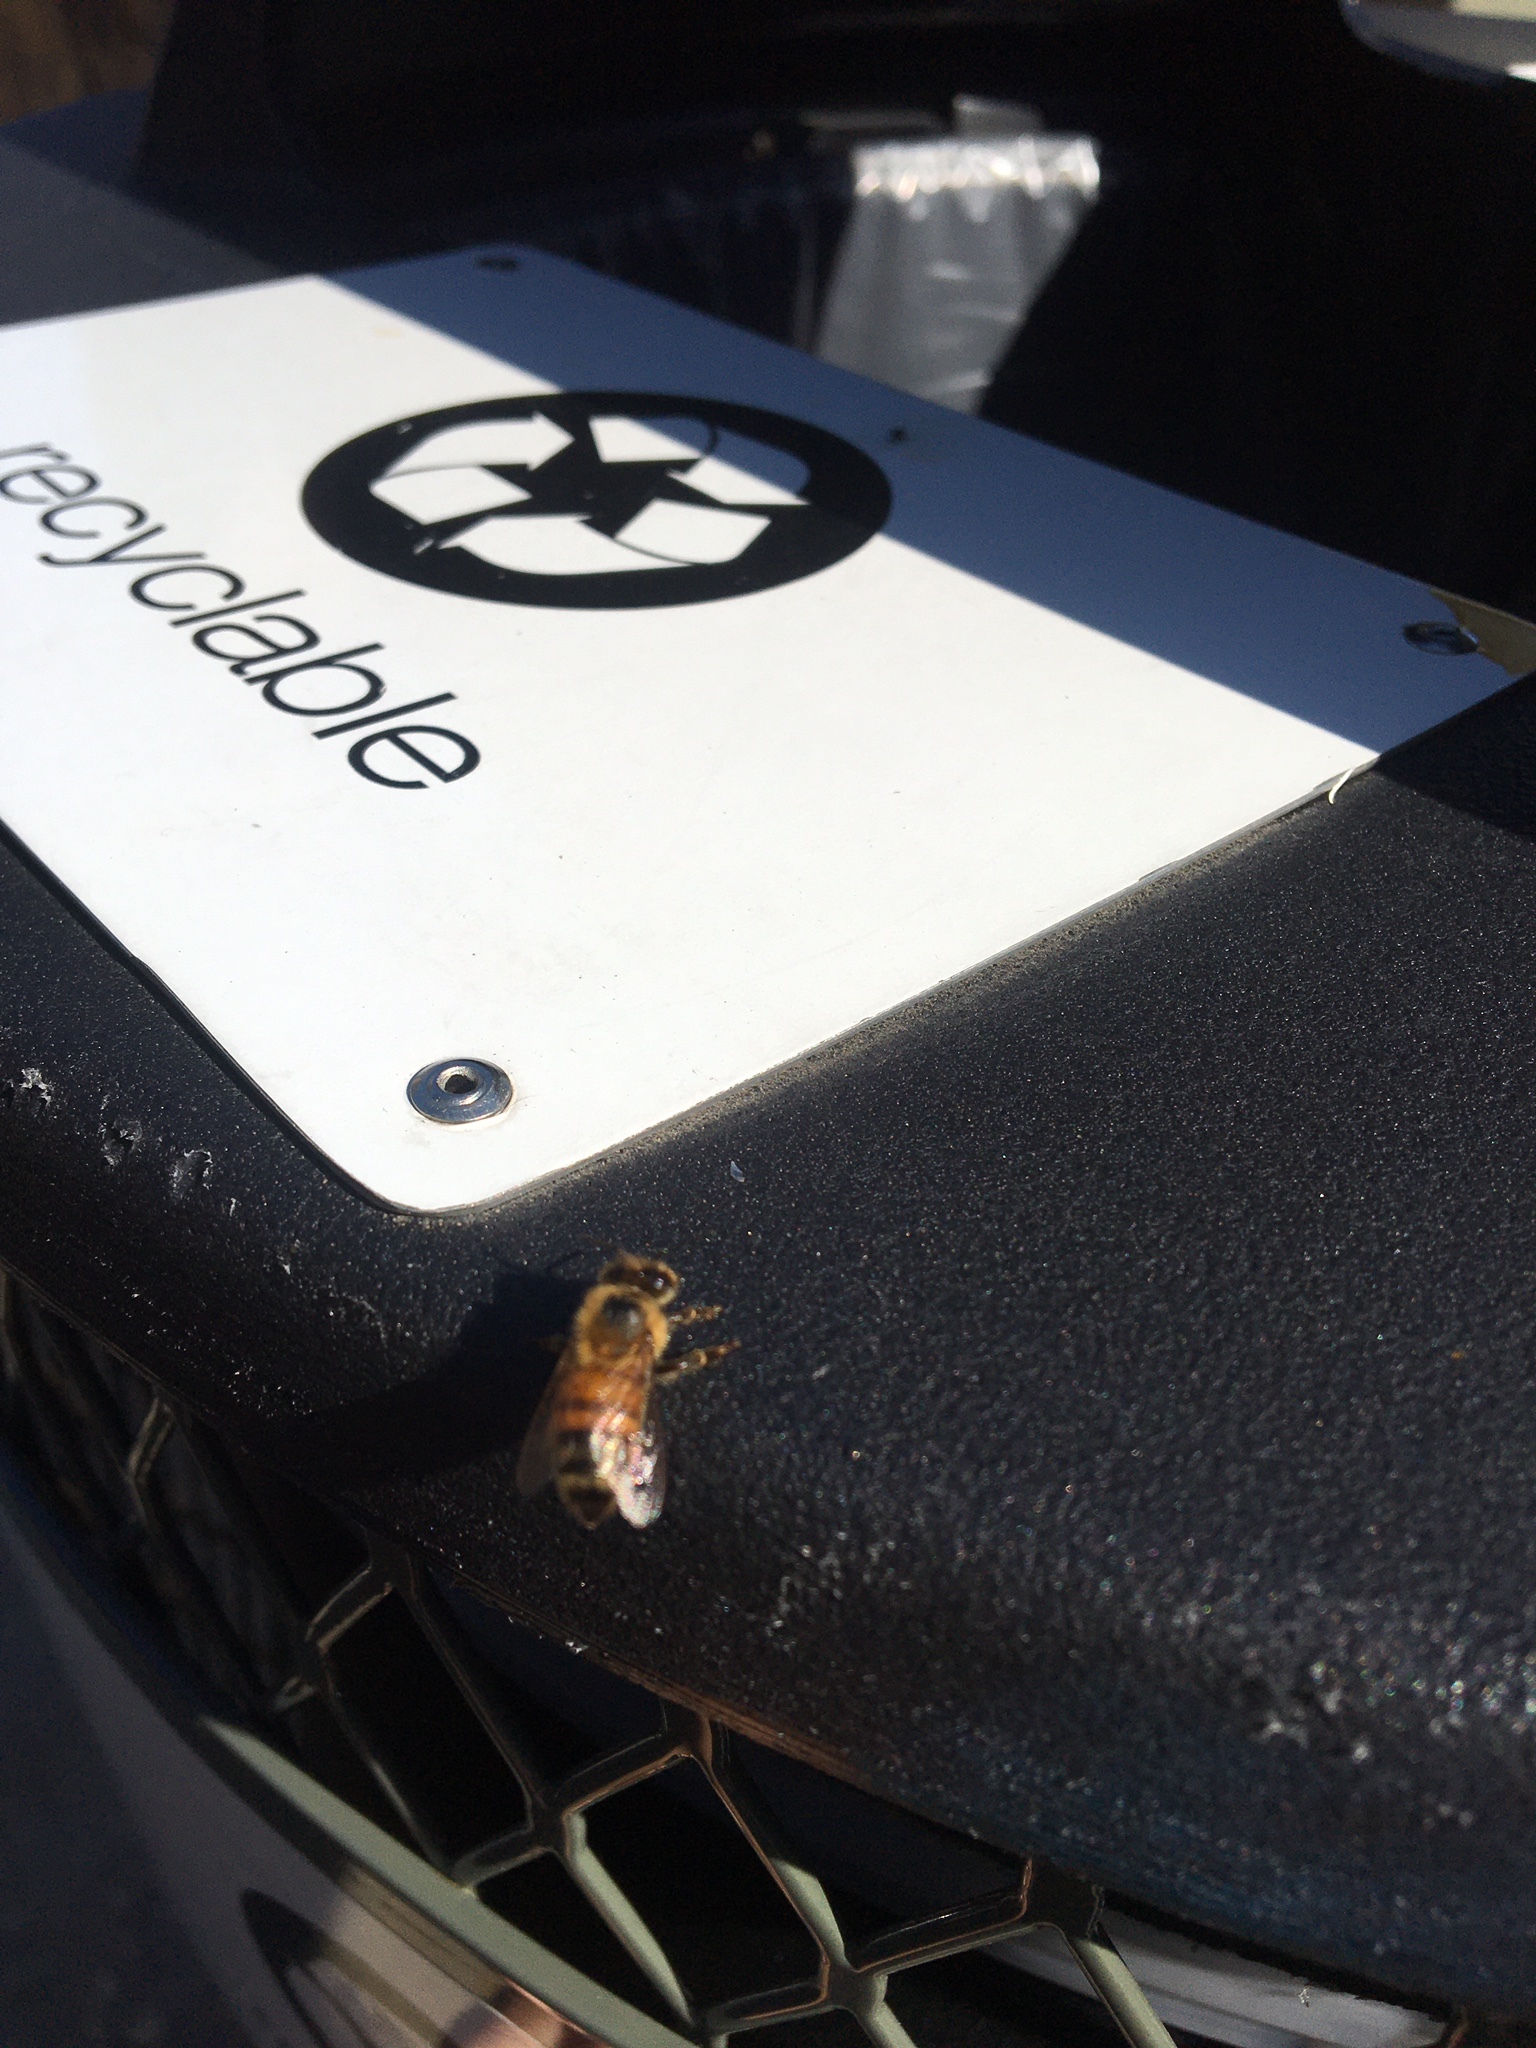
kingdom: Animalia
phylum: Arthropoda
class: Insecta
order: Hymenoptera
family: Apidae
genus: Apis
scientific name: Apis mellifera
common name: Honey bee
